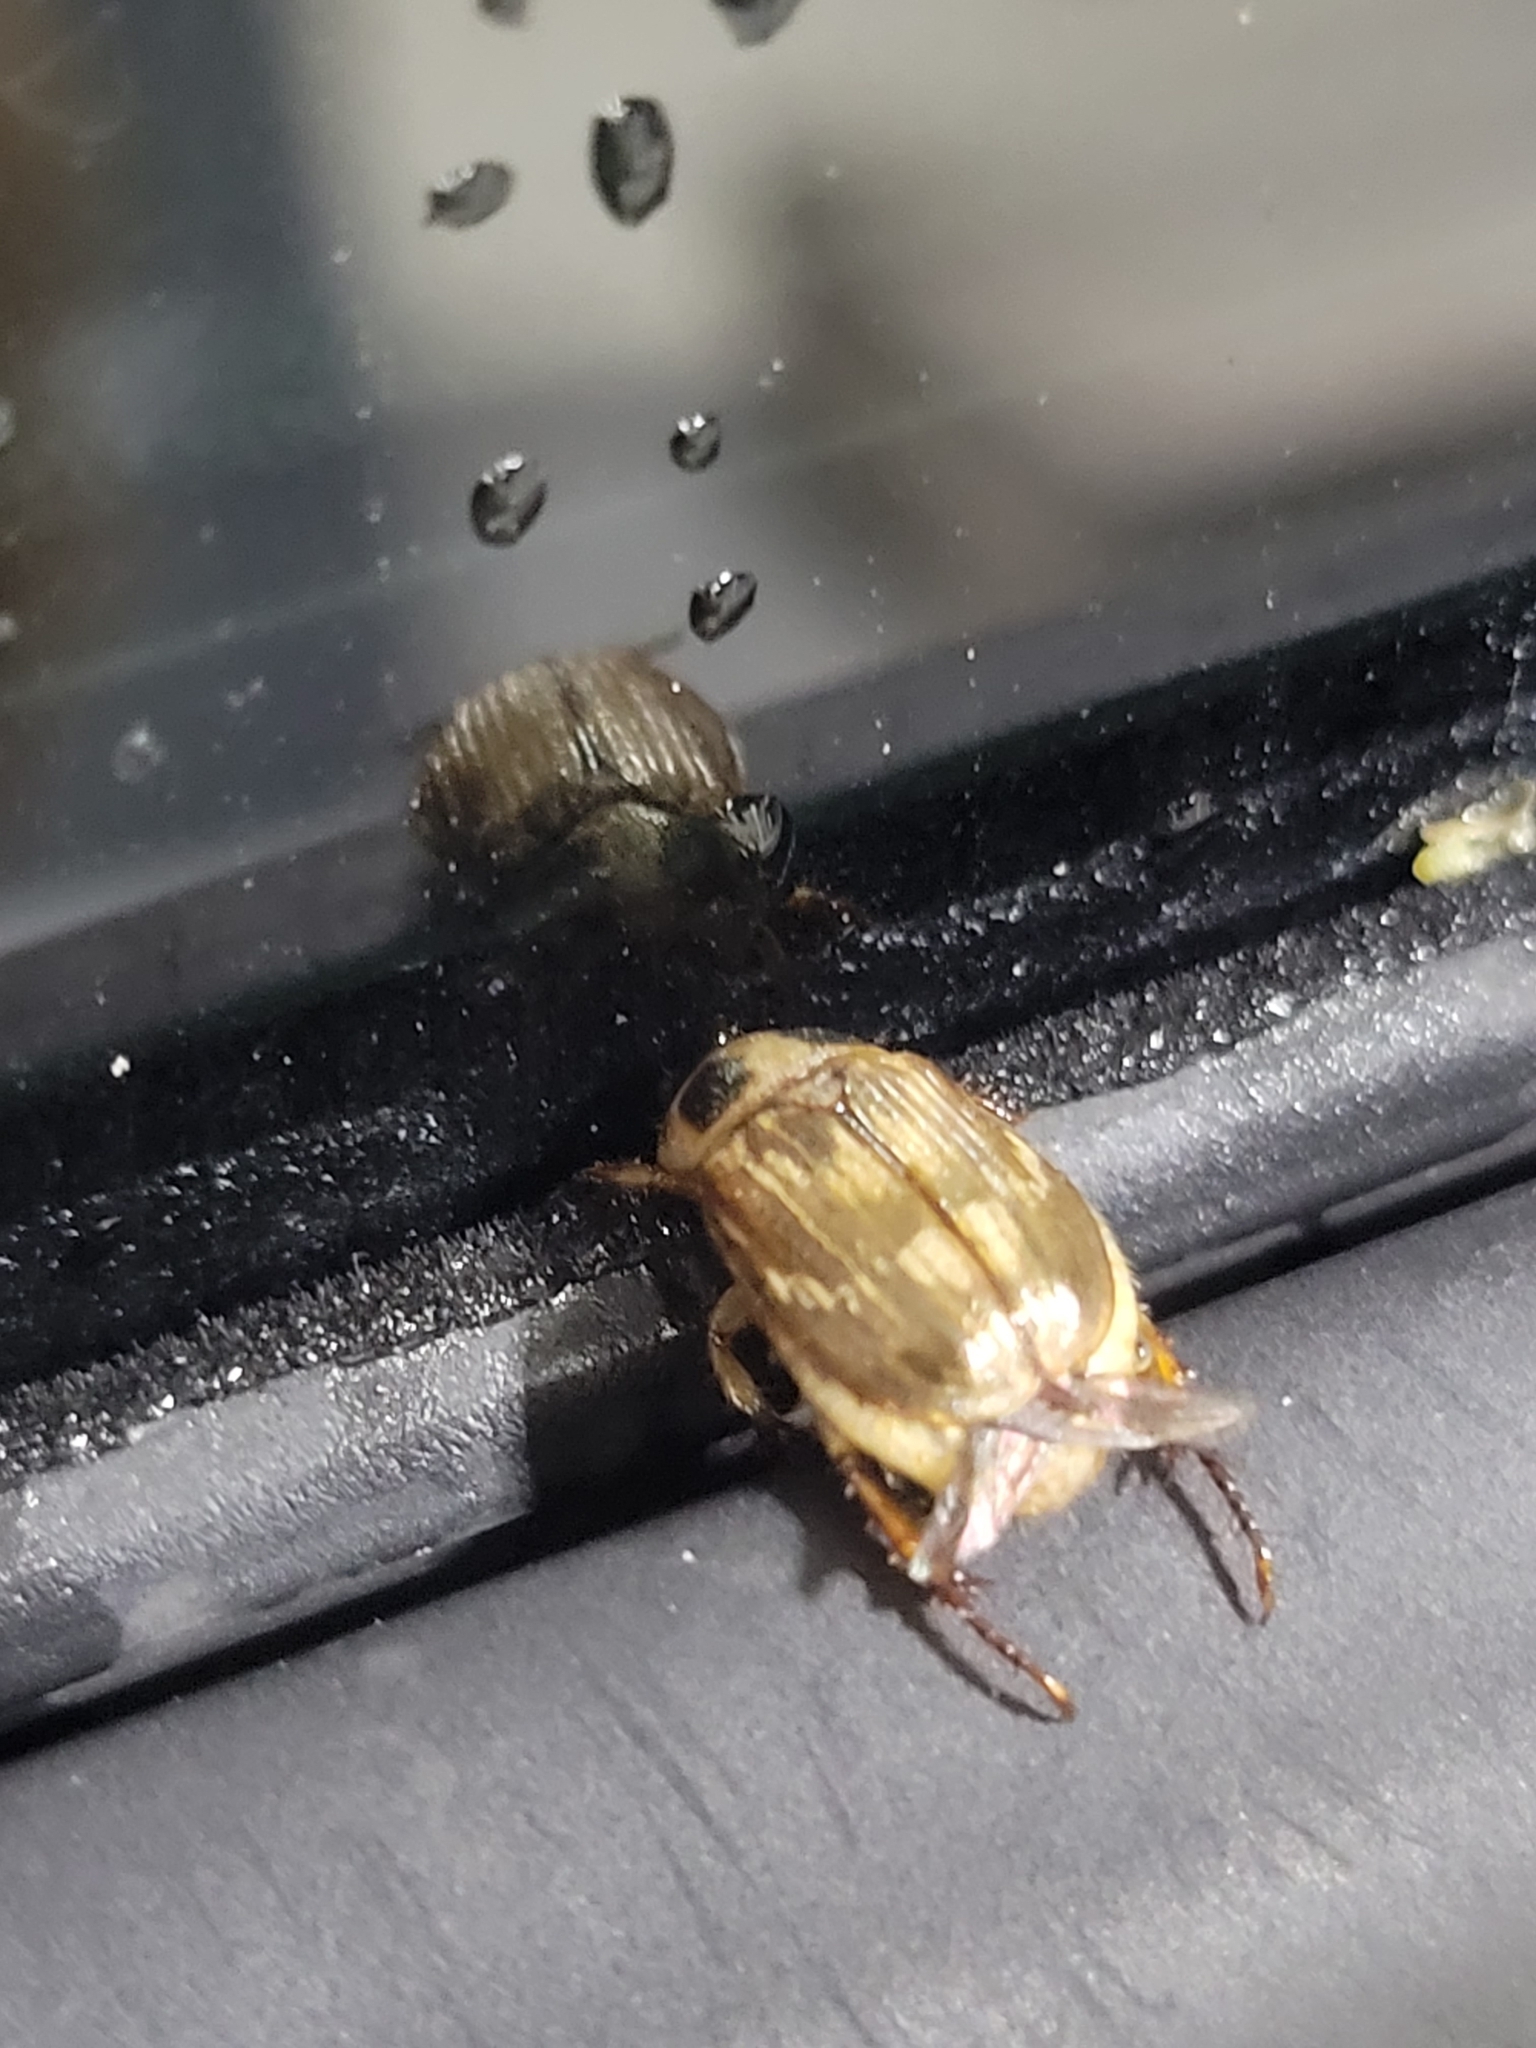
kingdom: Animalia
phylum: Arthropoda
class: Insecta
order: Coleoptera
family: Scarabaeidae
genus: Exomala
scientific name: Exomala orientalis
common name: Oriental beetle
